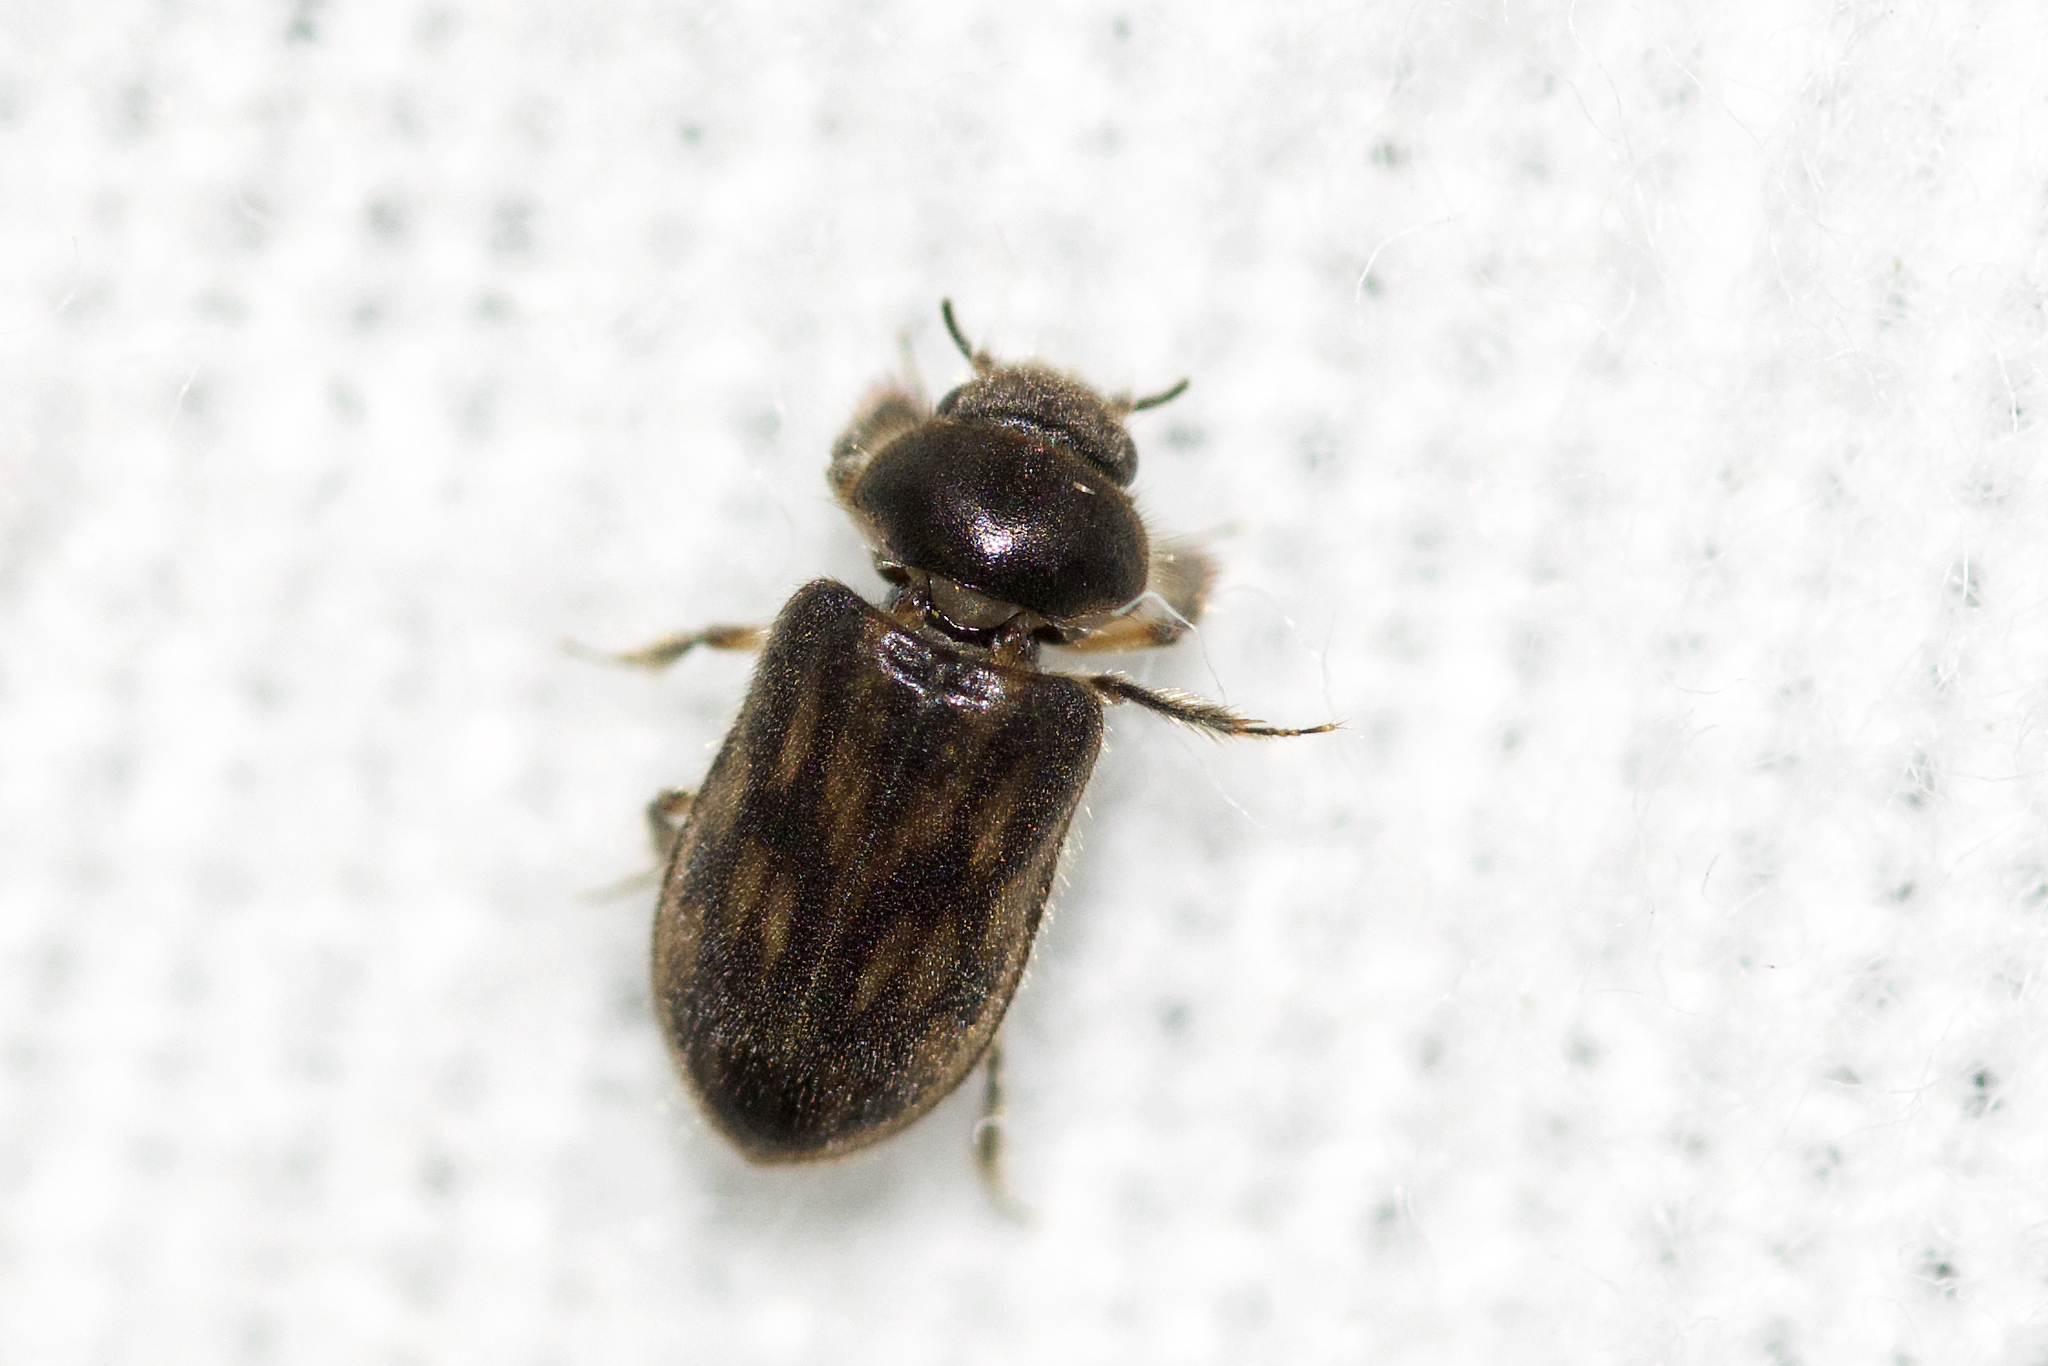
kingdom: Animalia
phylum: Arthropoda
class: Insecta
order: Coleoptera
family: Heteroceridae
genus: Heterocerus
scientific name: Heterocerus fenestratus
